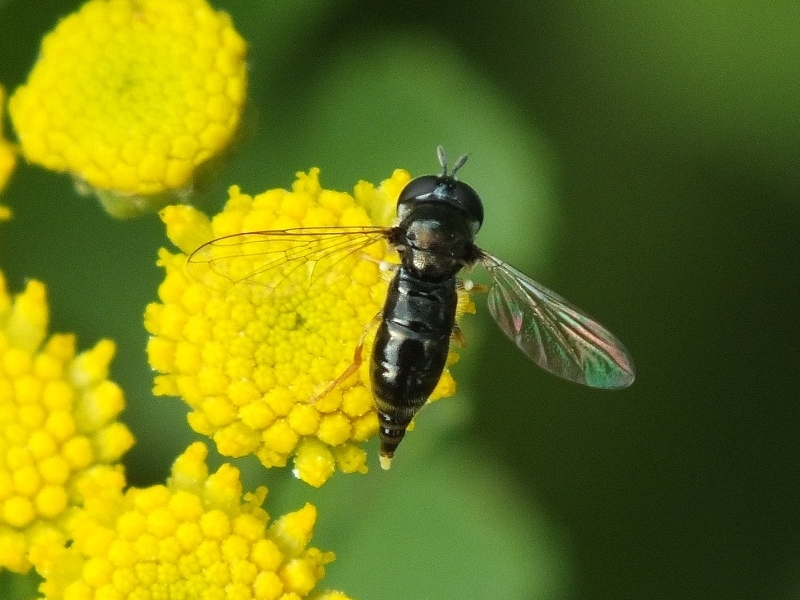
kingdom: Animalia
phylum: Arthropoda
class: Insecta
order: Diptera
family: Syrphidae
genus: Paragus
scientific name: Paragus
